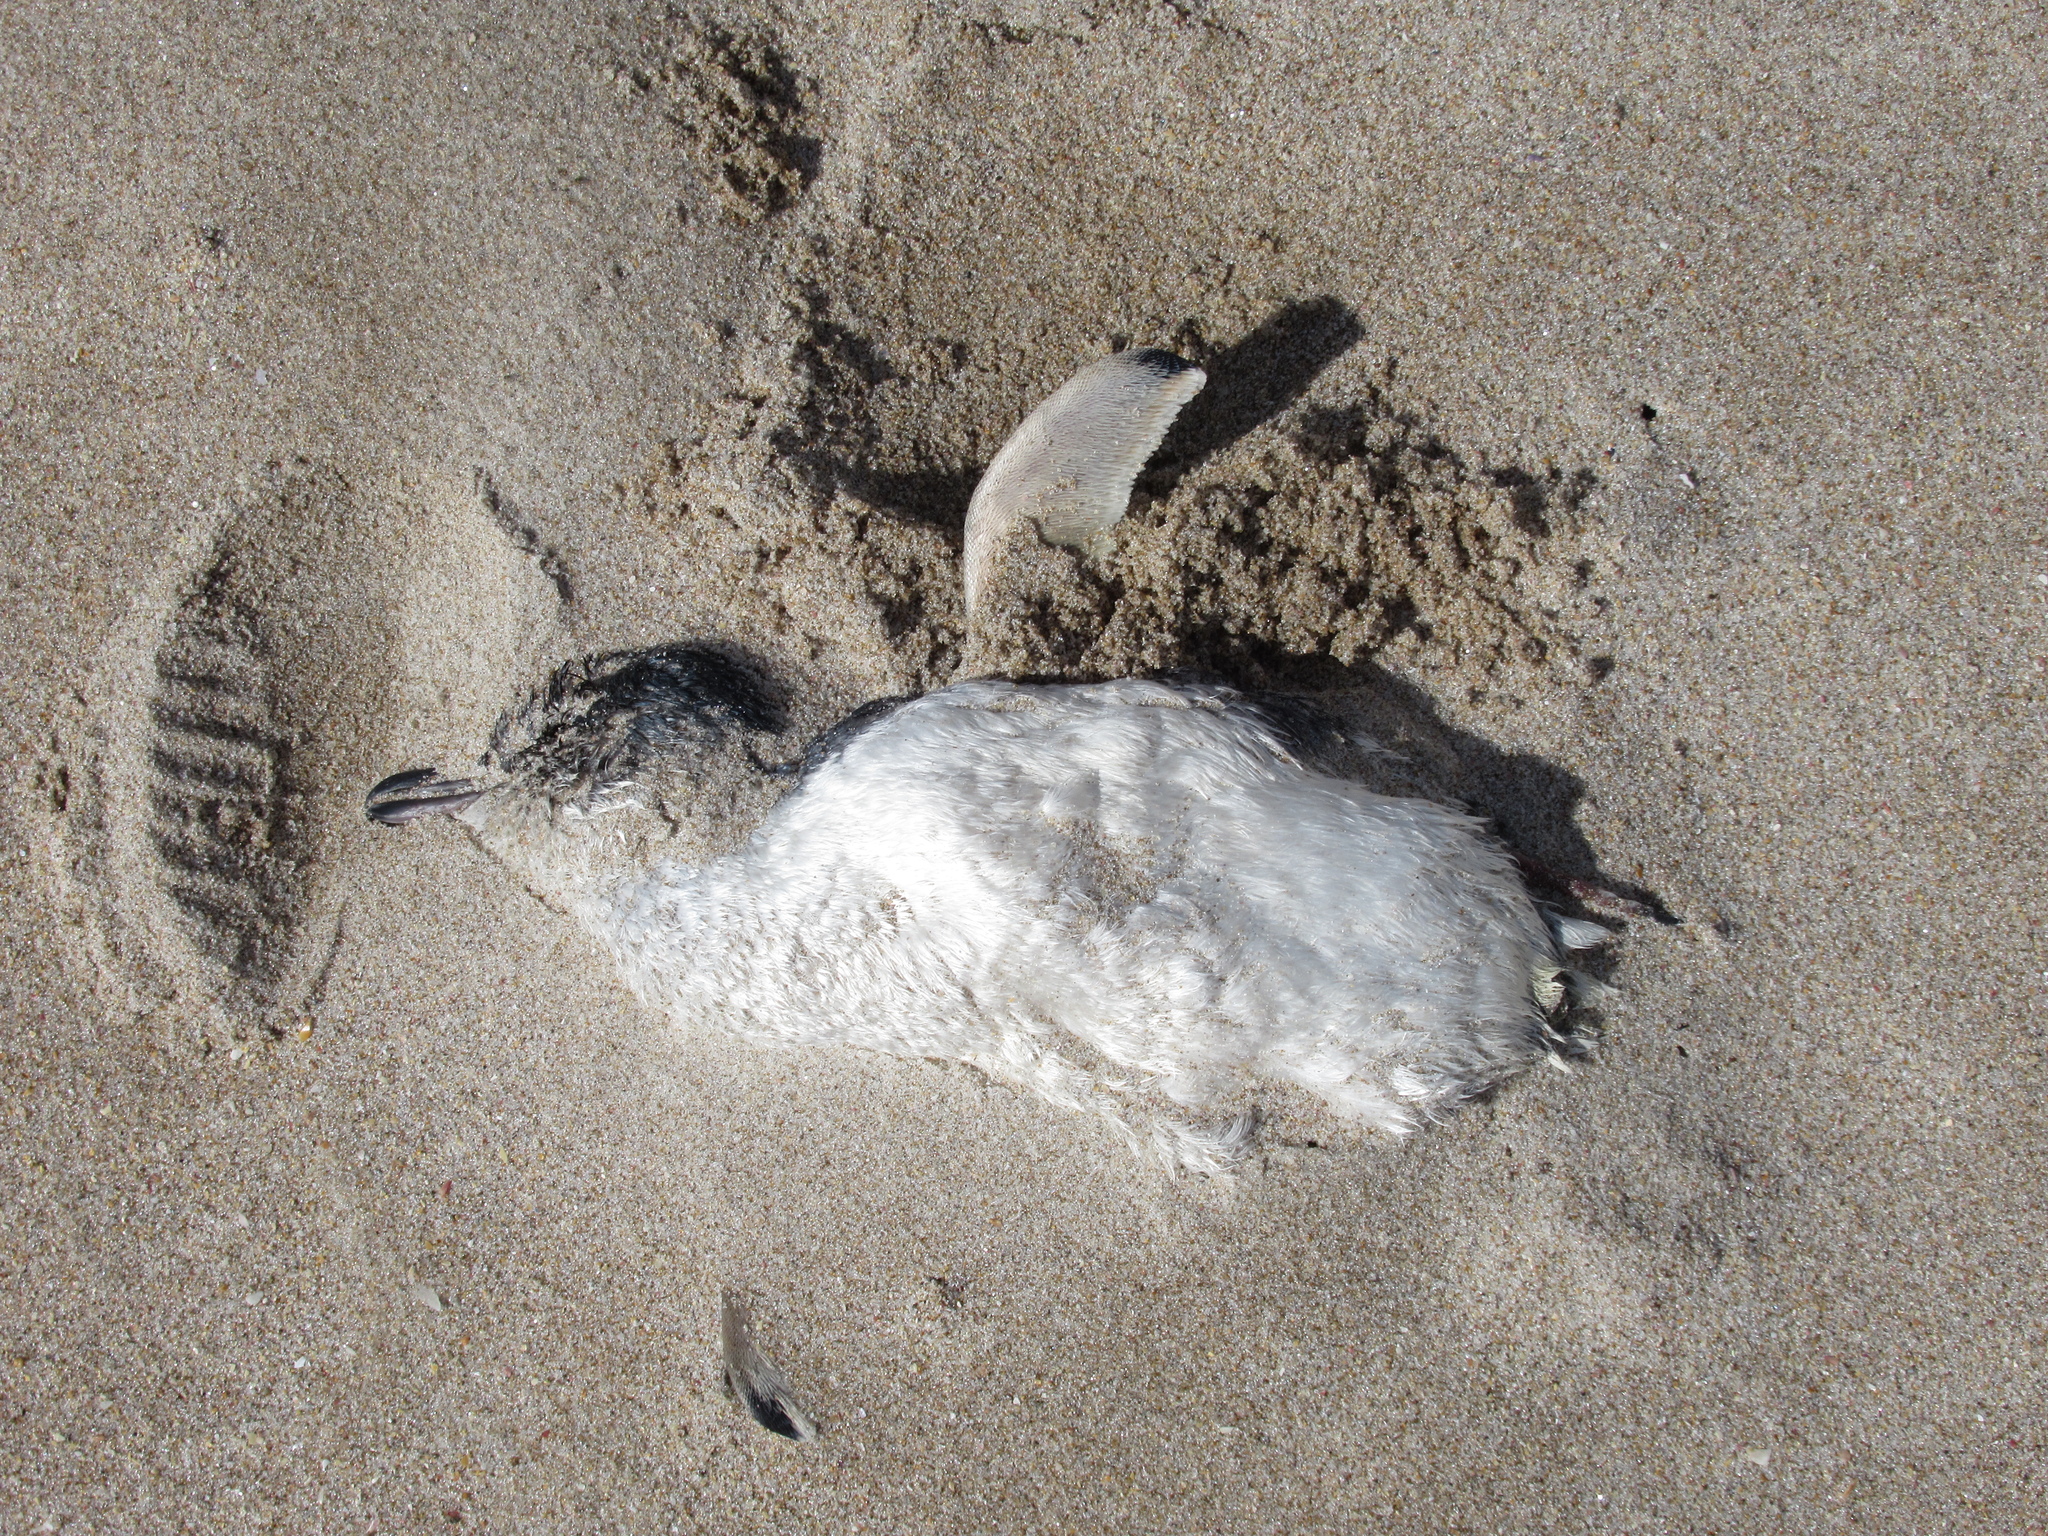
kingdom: Animalia
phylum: Chordata
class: Aves
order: Sphenisciformes
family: Spheniscidae
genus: Eudyptula
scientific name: Eudyptula minor
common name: Little penguin
